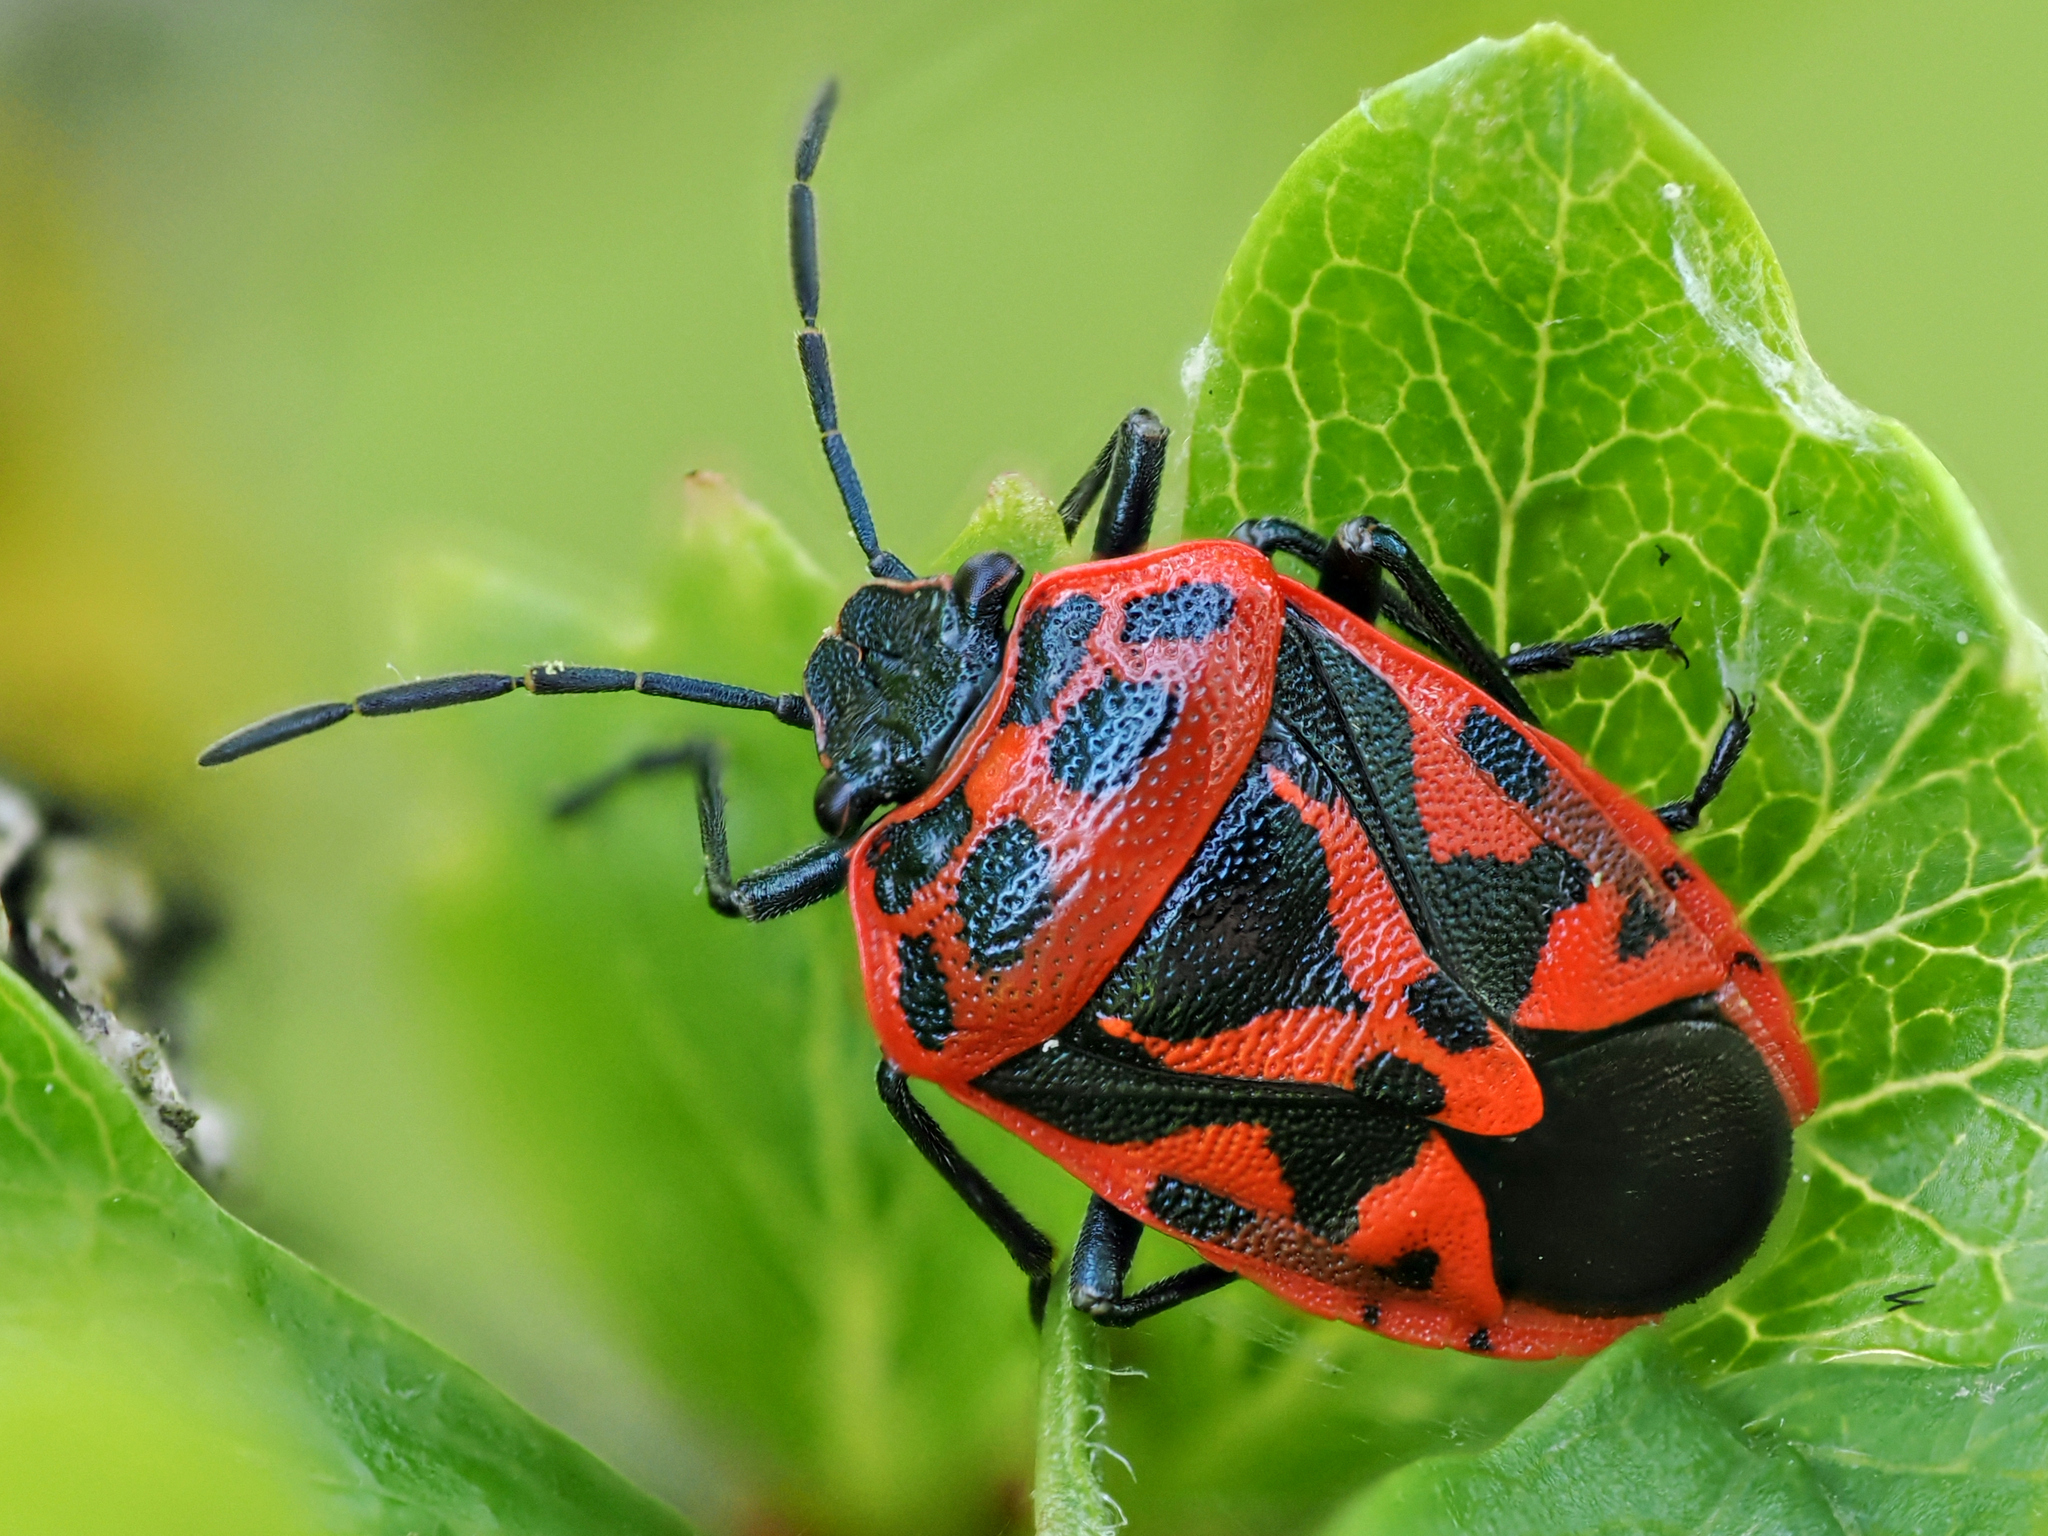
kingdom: Animalia
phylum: Arthropoda
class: Insecta
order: Hemiptera
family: Pentatomidae
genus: Eurydema
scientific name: Eurydema ornata
